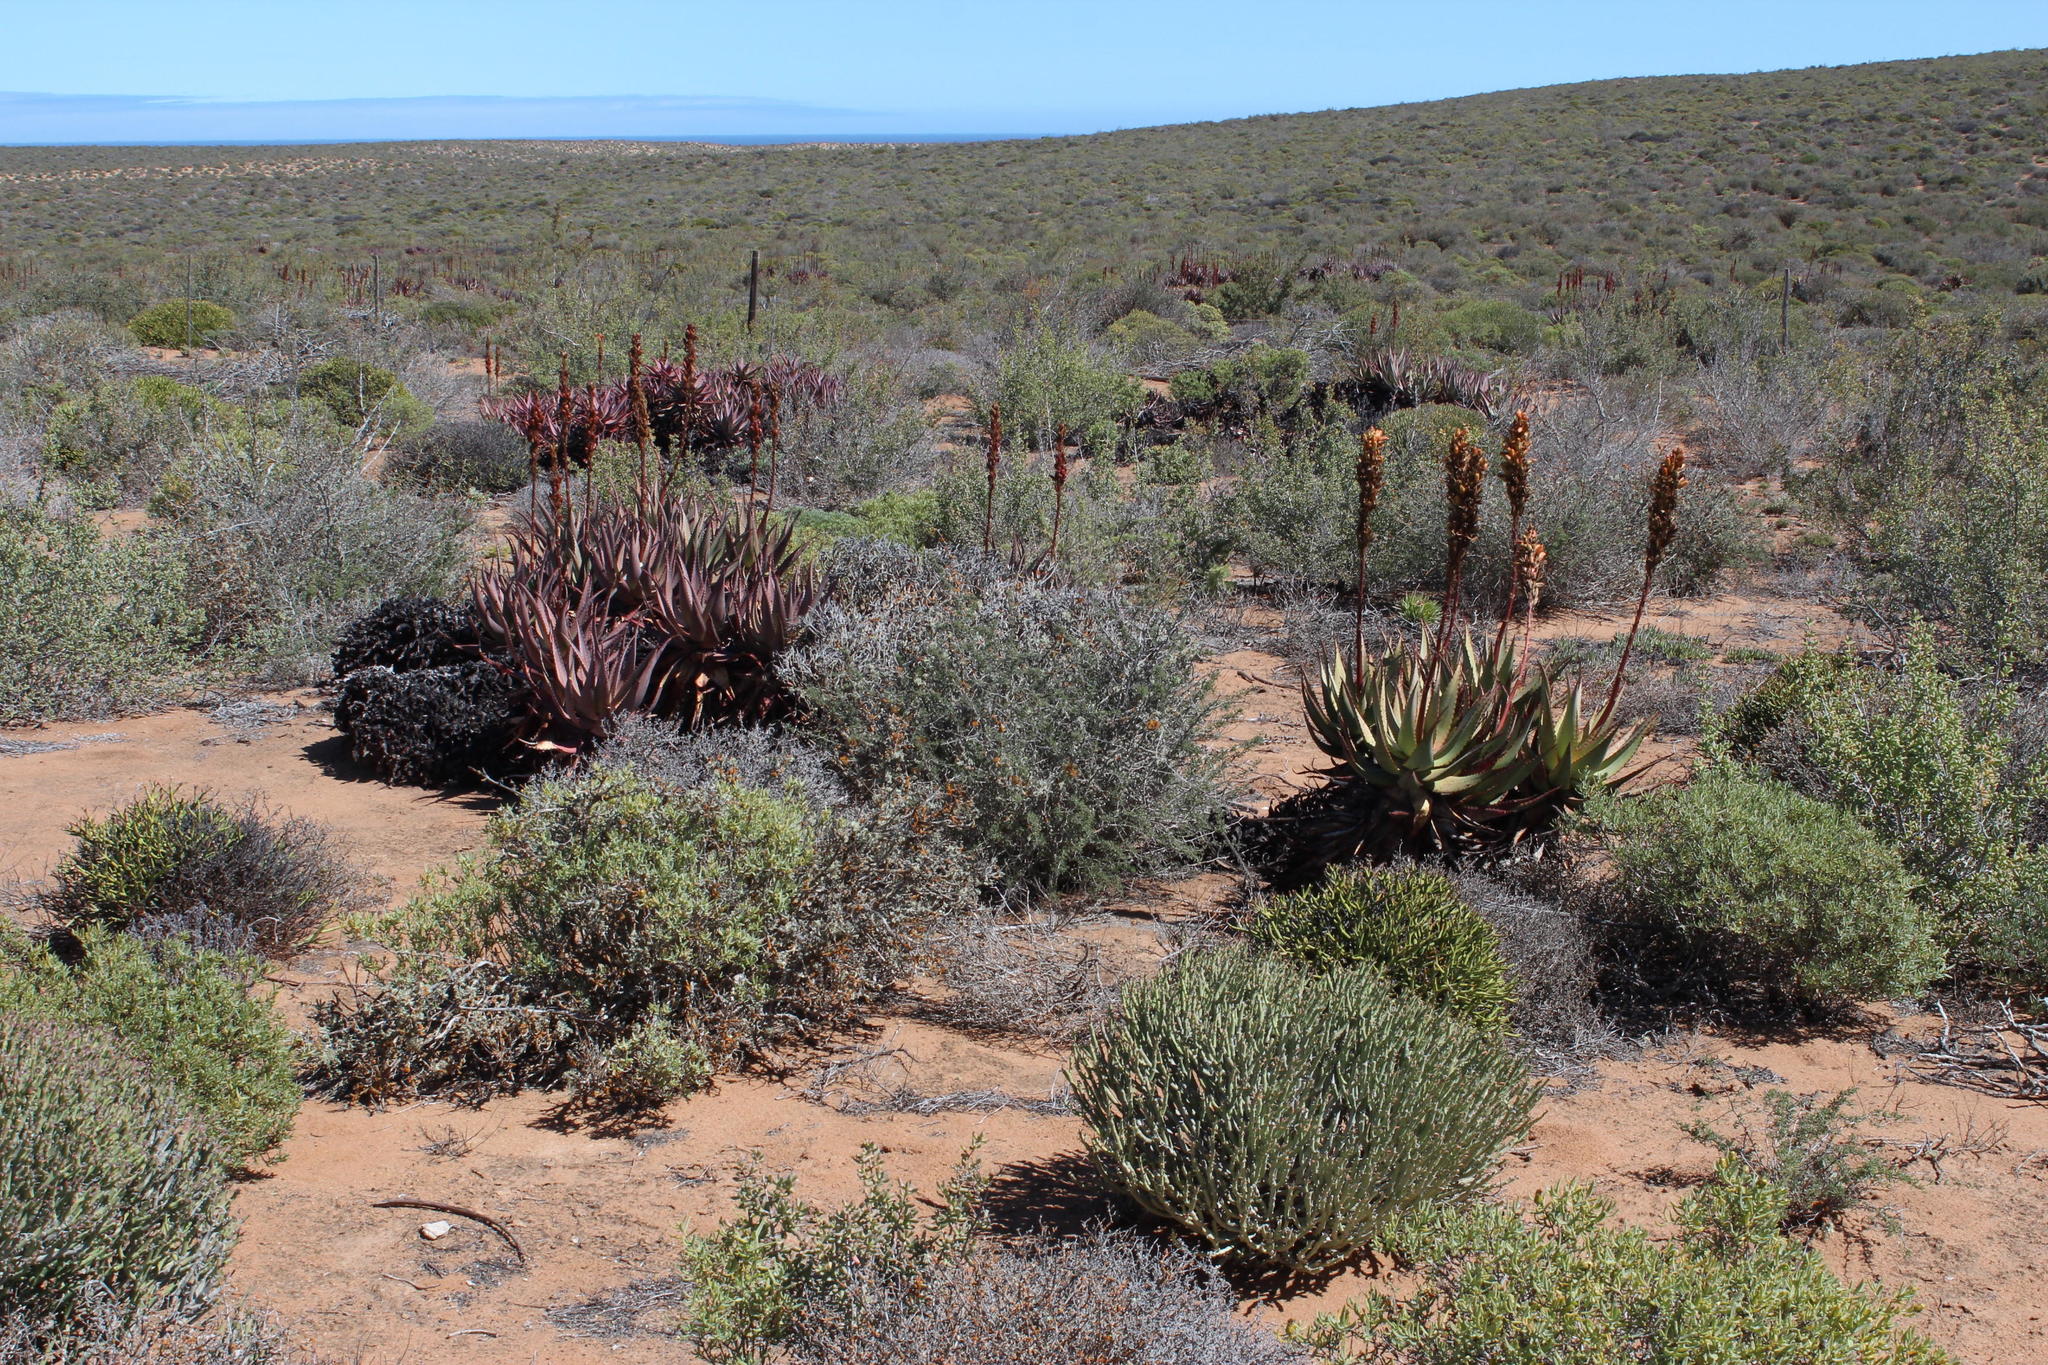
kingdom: Plantae
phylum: Tracheophyta
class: Liliopsida
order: Asparagales
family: Asphodelaceae
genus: Aloe
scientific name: Aloe microstigma
